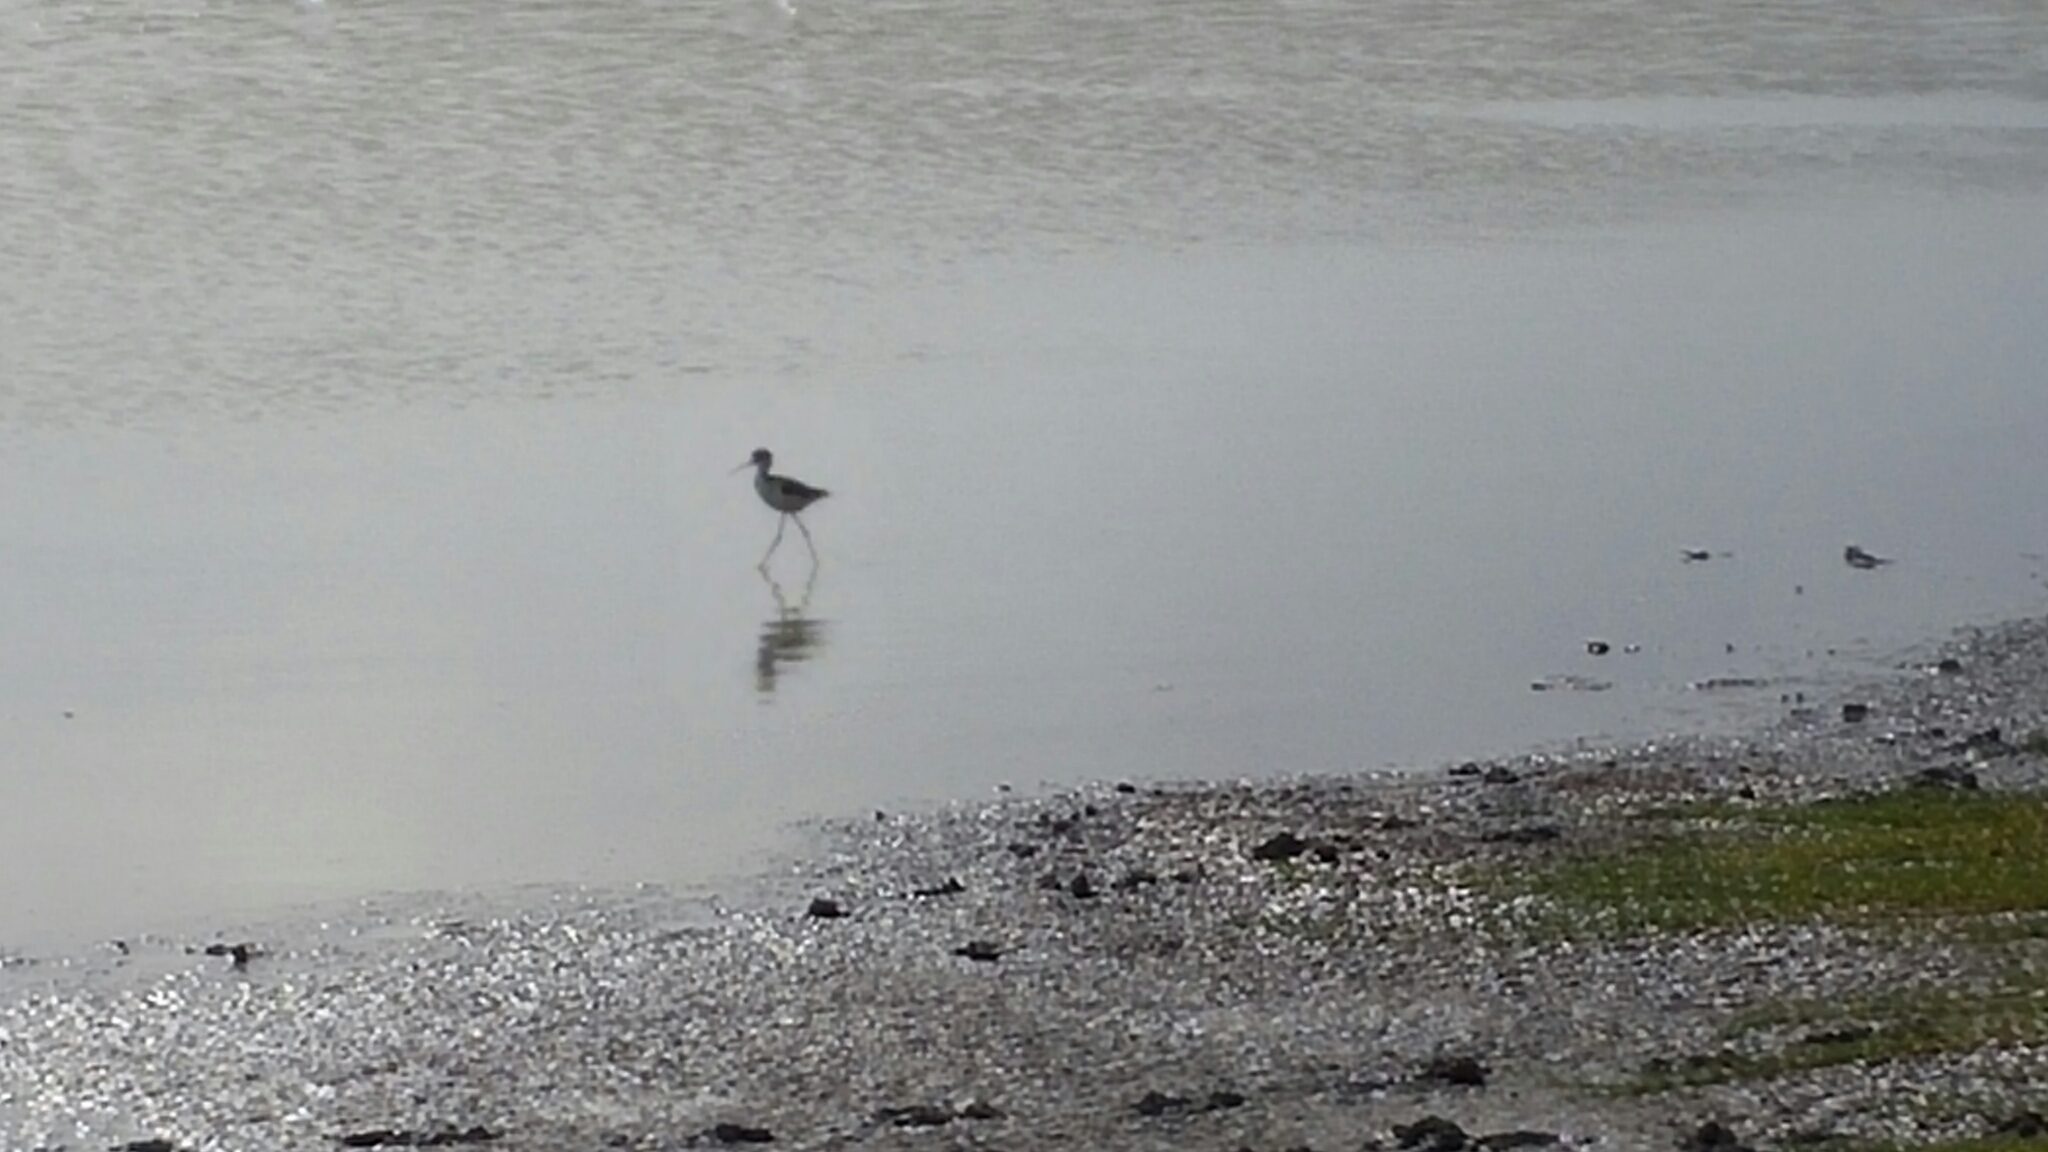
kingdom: Animalia
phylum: Chordata
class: Aves
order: Charadriiformes
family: Recurvirostridae
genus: Himantopus
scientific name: Himantopus mexicanus
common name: Black-necked stilt
